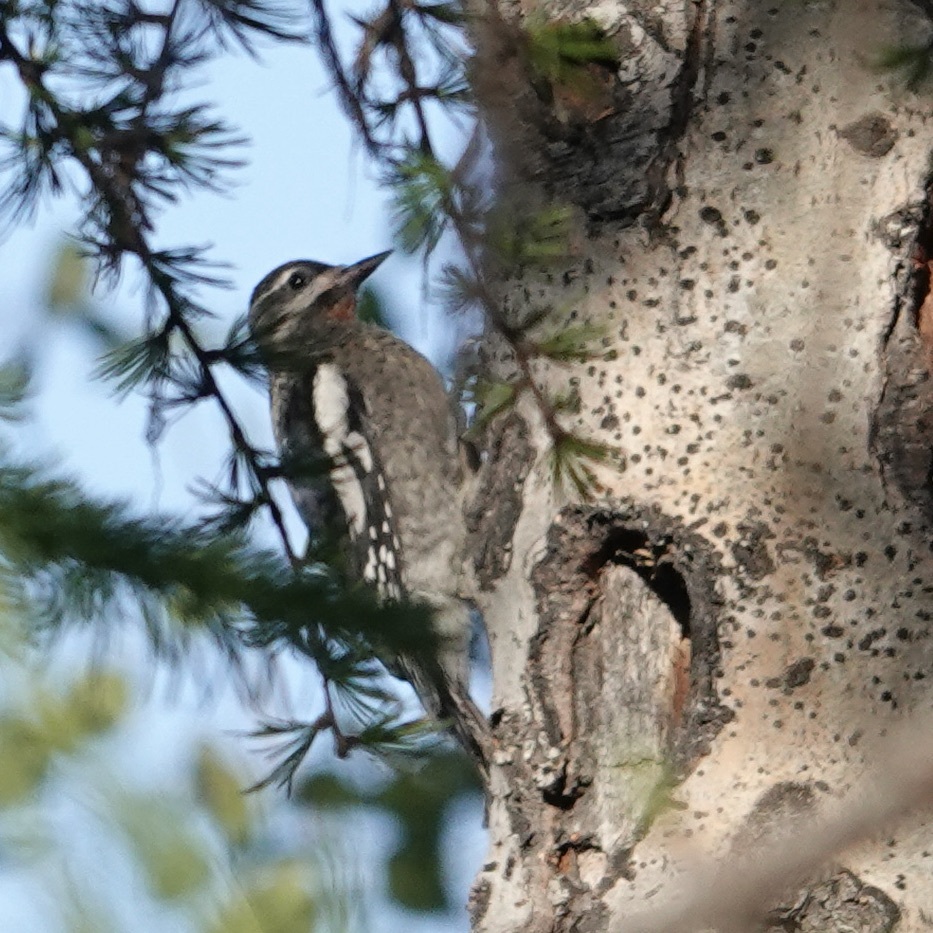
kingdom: Animalia
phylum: Chordata
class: Aves
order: Piciformes
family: Picidae
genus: Sphyrapicus
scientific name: Sphyrapicus nuchalis
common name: Red-naped sapsucker
